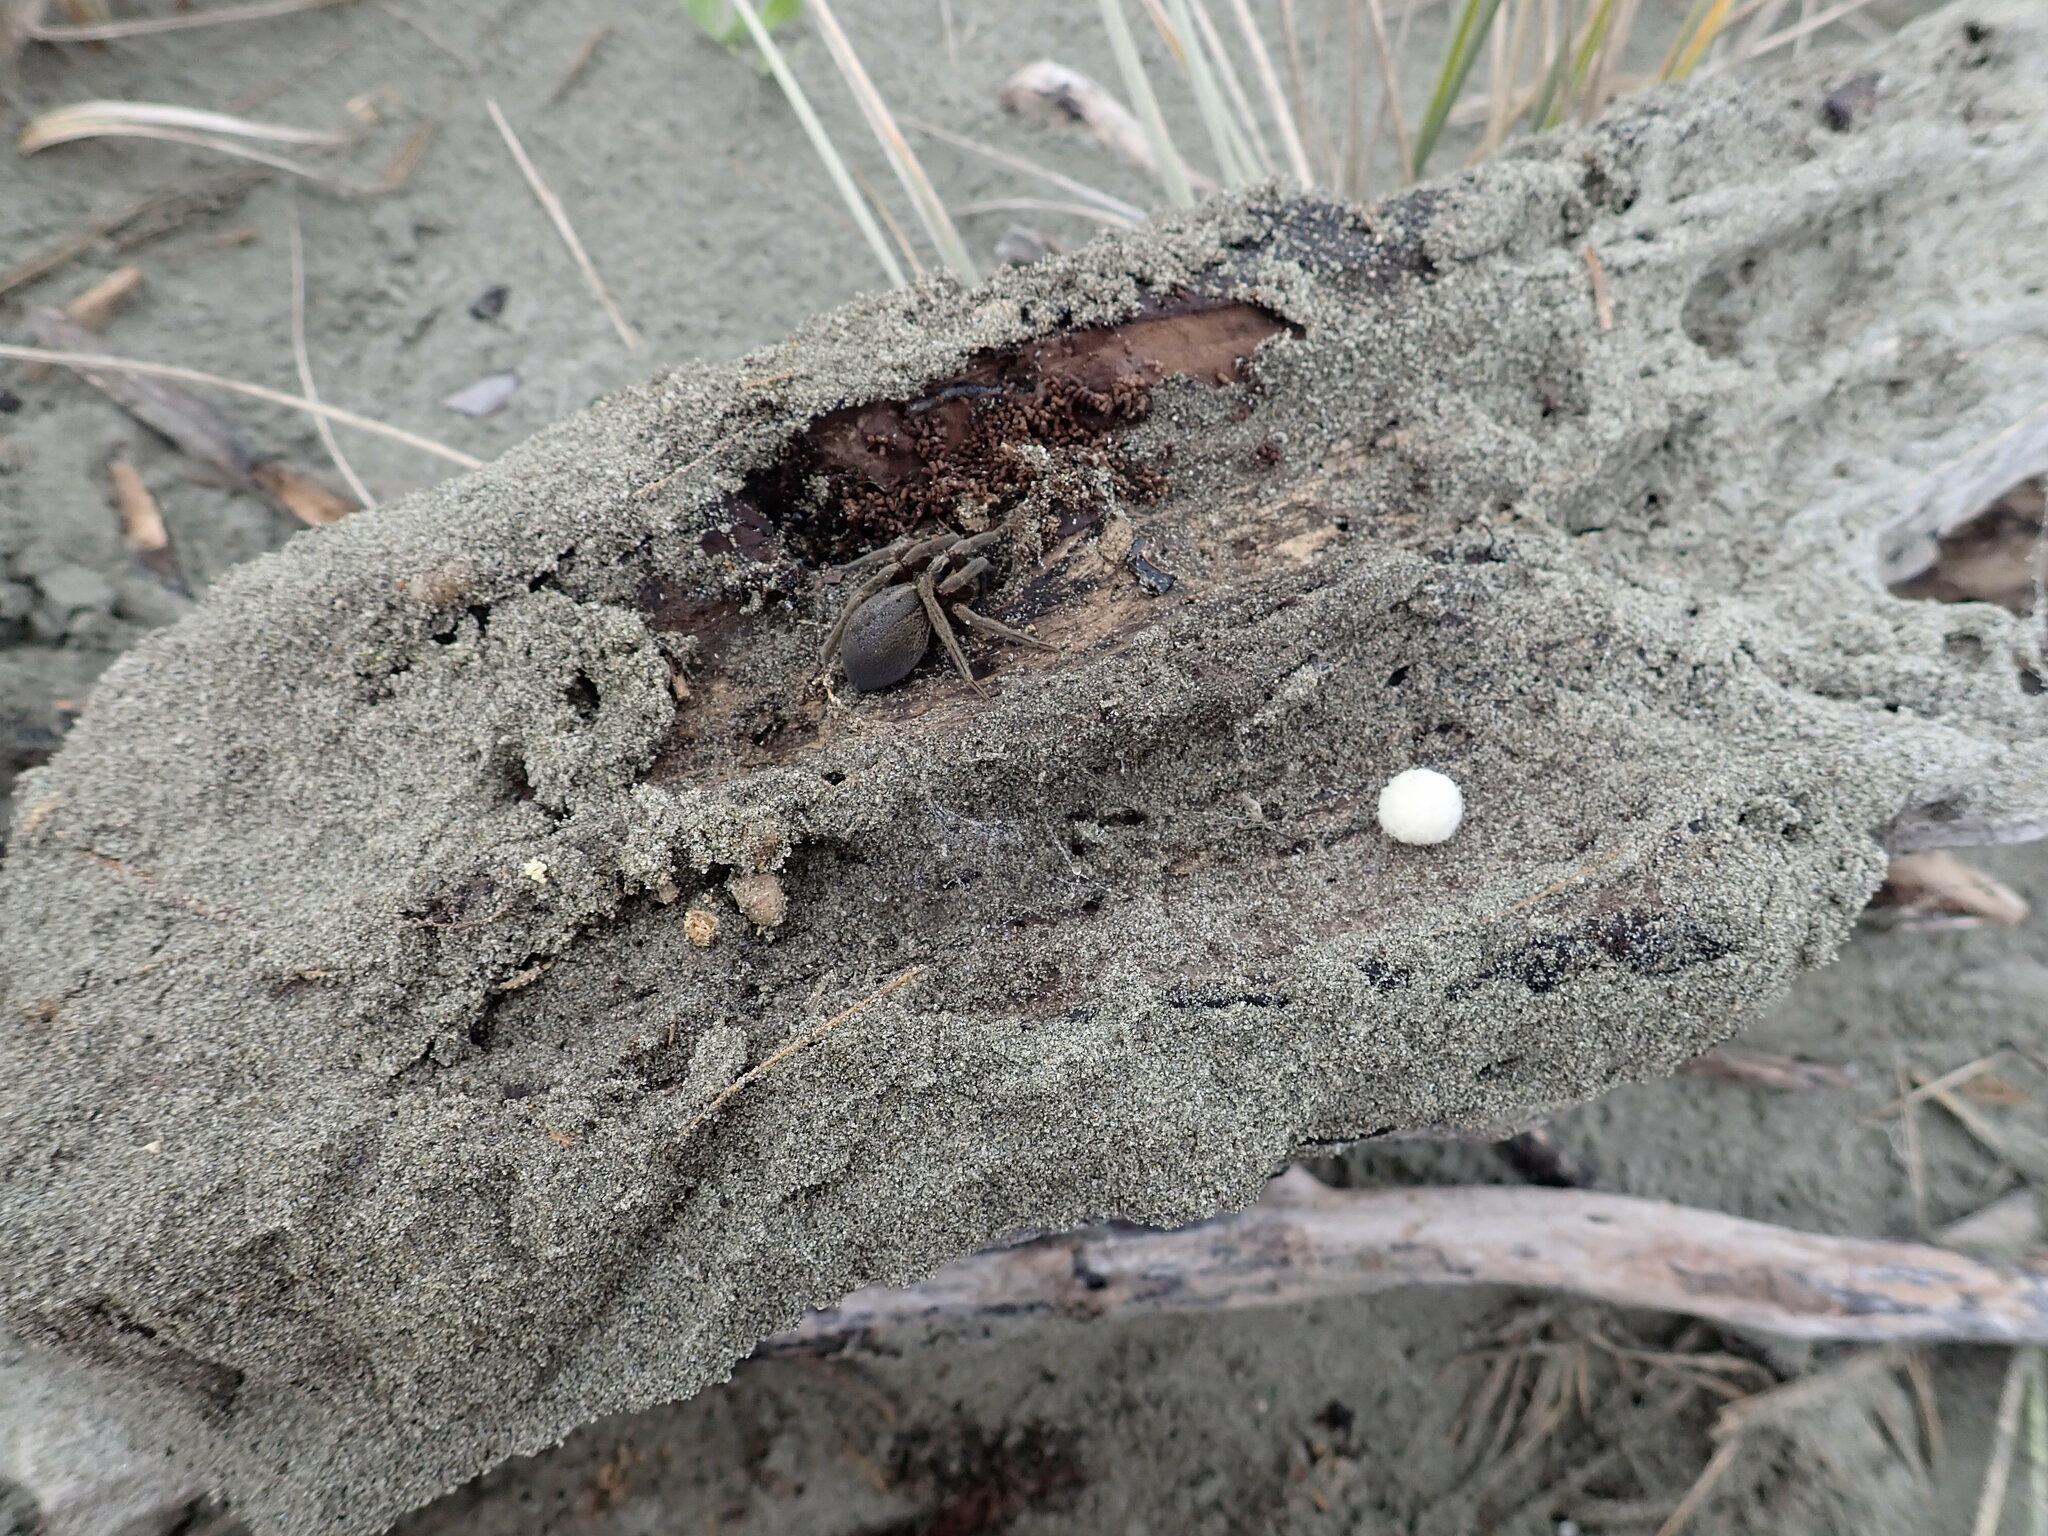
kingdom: Animalia
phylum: Arthropoda
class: Arachnida
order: Araneae
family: Pisauridae
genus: Dolomedes
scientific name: Dolomedes minor
